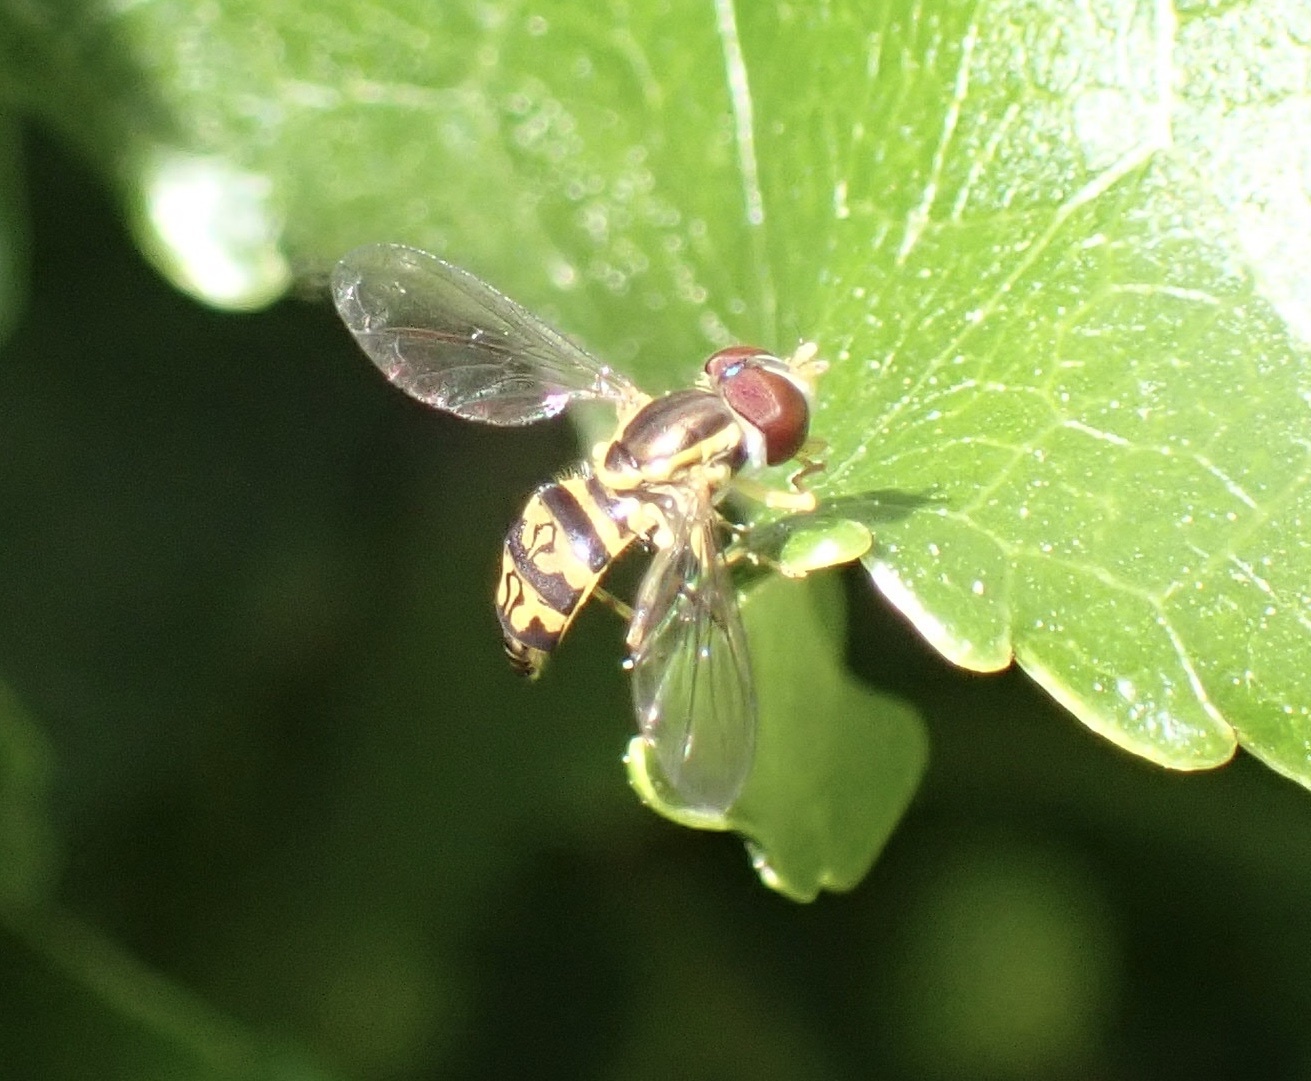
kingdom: Animalia
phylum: Arthropoda
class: Insecta
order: Diptera
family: Syrphidae
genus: Toxomerus
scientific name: Toxomerus geminatus
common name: Eastern calligrapher
